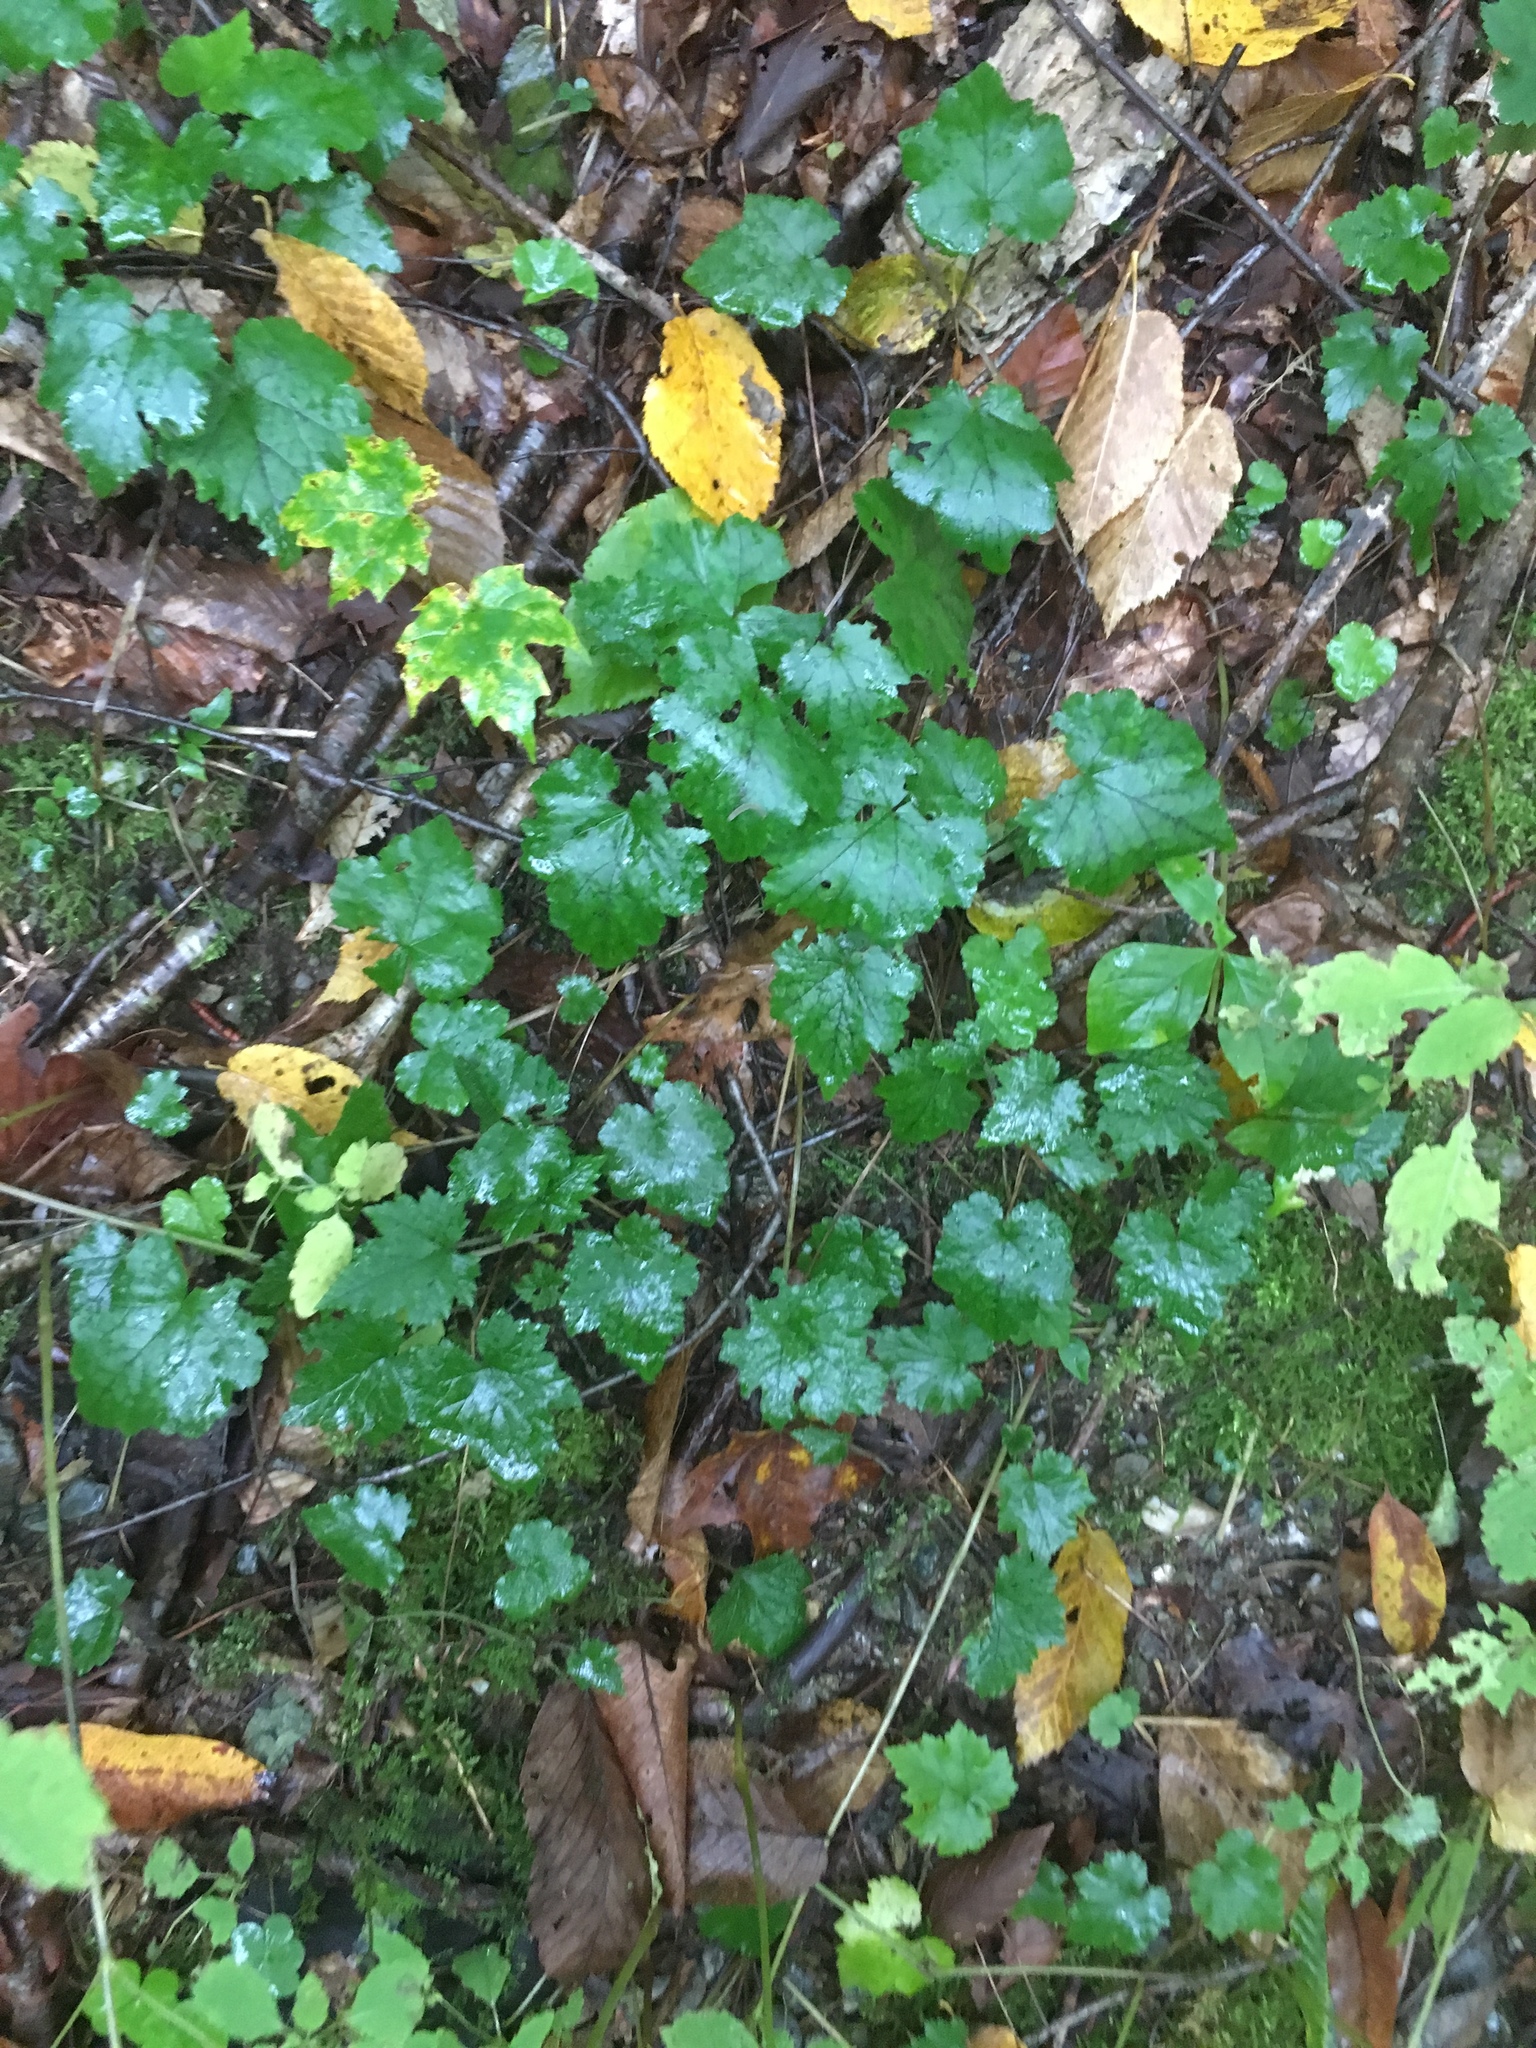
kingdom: Plantae
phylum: Tracheophyta
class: Magnoliopsida
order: Saxifragales
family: Saxifragaceae
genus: Tiarella
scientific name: Tiarella stolonifera
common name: Stoloniferous foamflower
